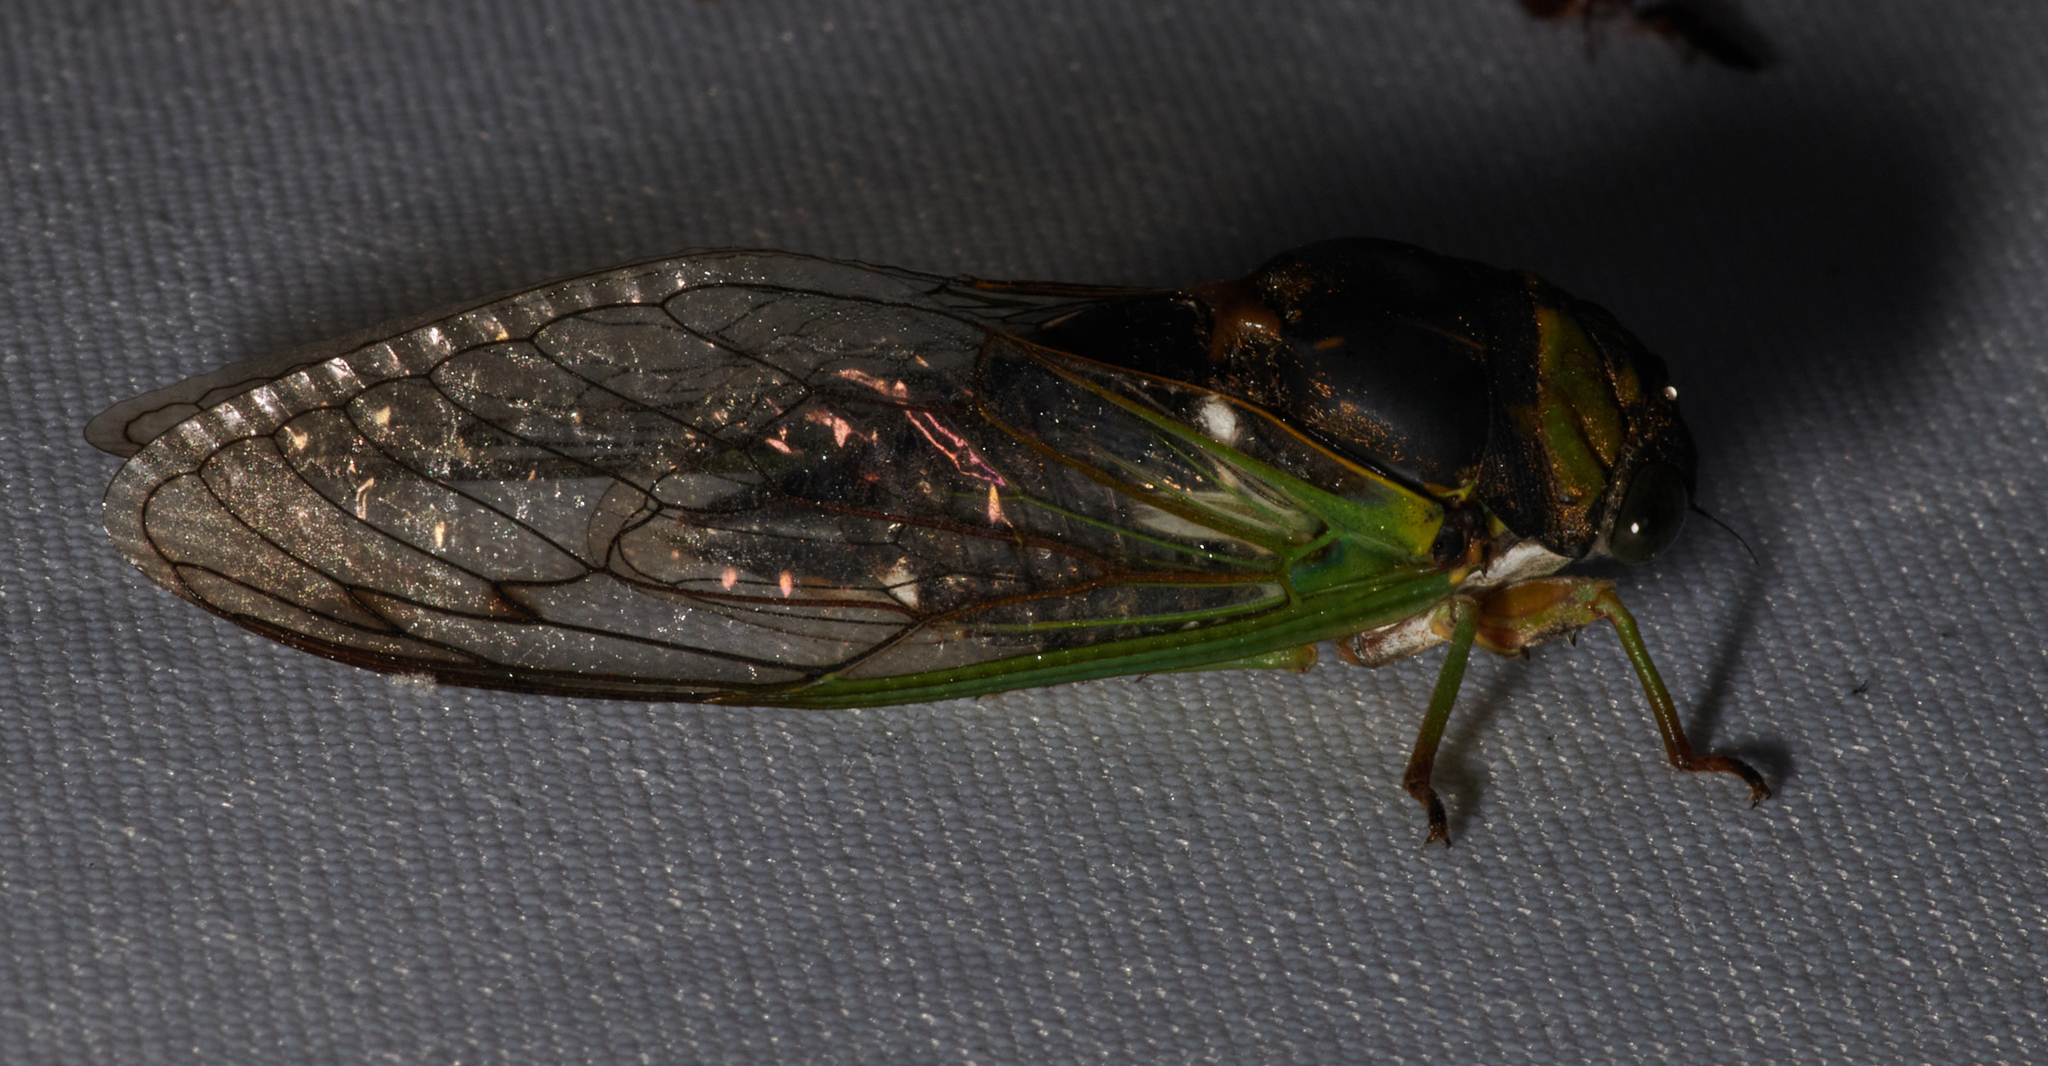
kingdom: Animalia
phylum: Arthropoda
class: Insecta
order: Hemiptera
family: Cicadidae
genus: Neotibicen
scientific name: Neotibicen tibicen
